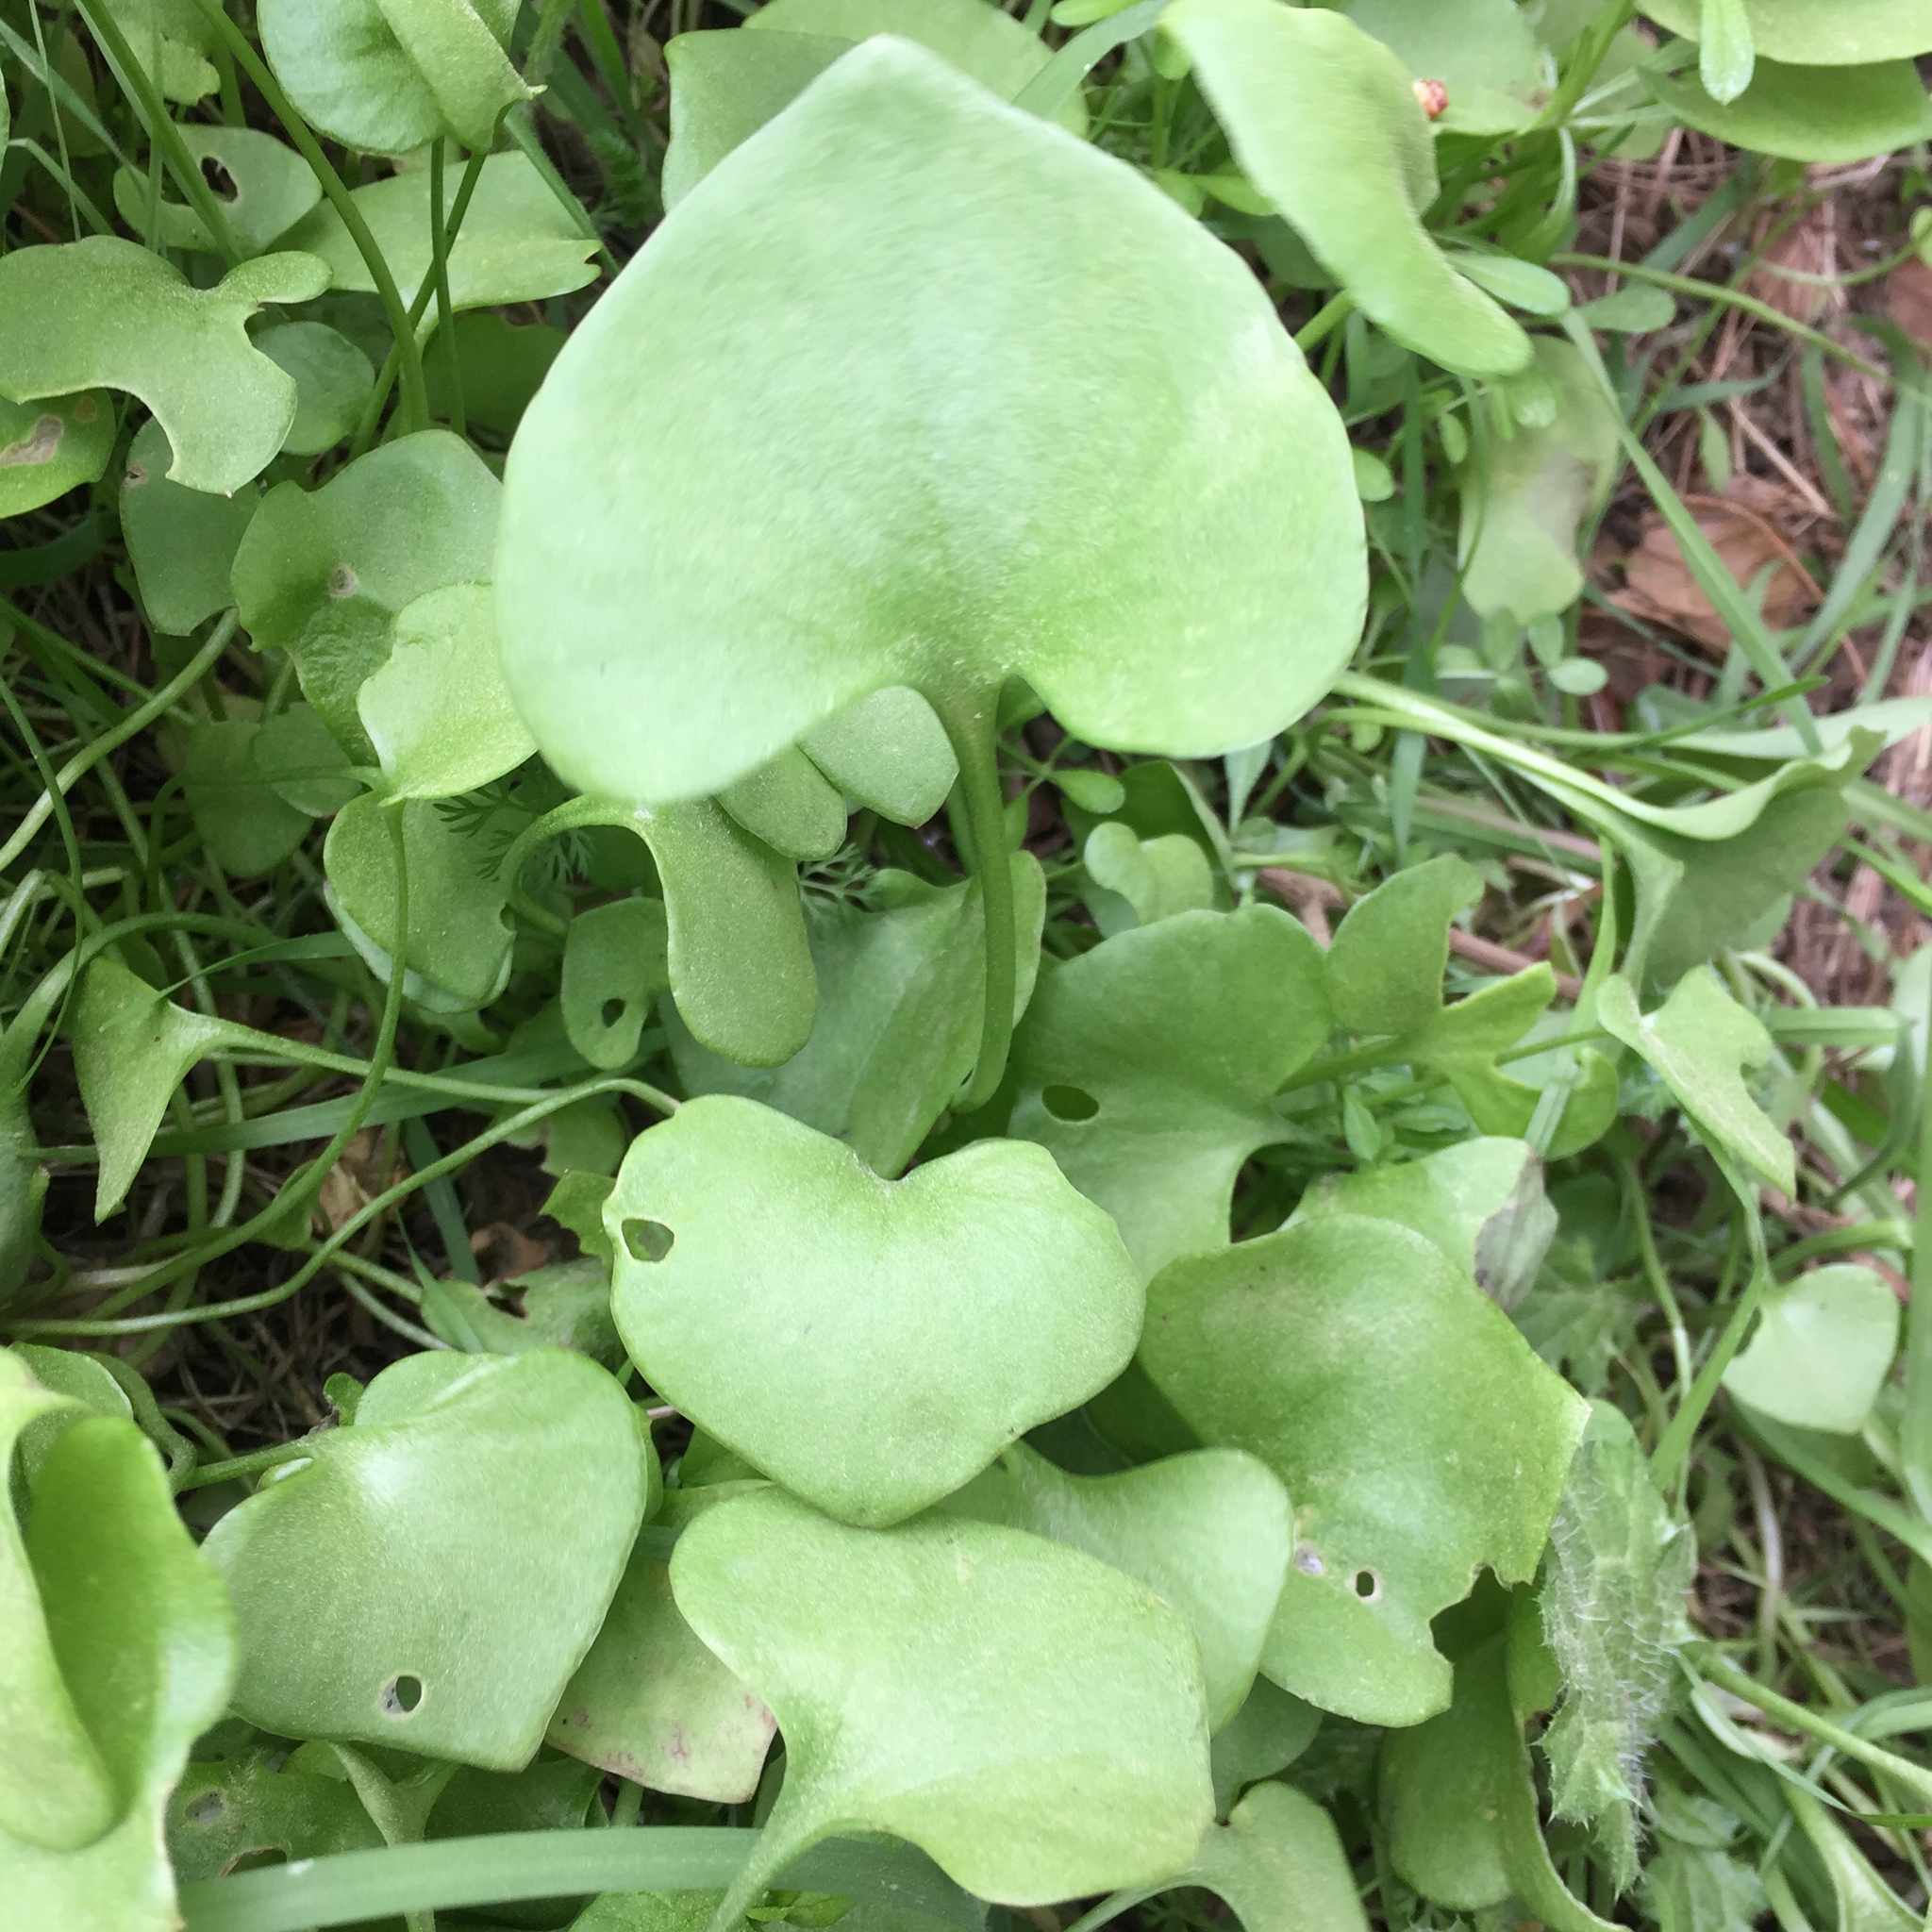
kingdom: Plantae
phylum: Tracheophyta
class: Magnoliopsida
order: Caryophyllales
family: Montiaceae
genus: Claytonia
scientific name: Claytonia perfoliata
